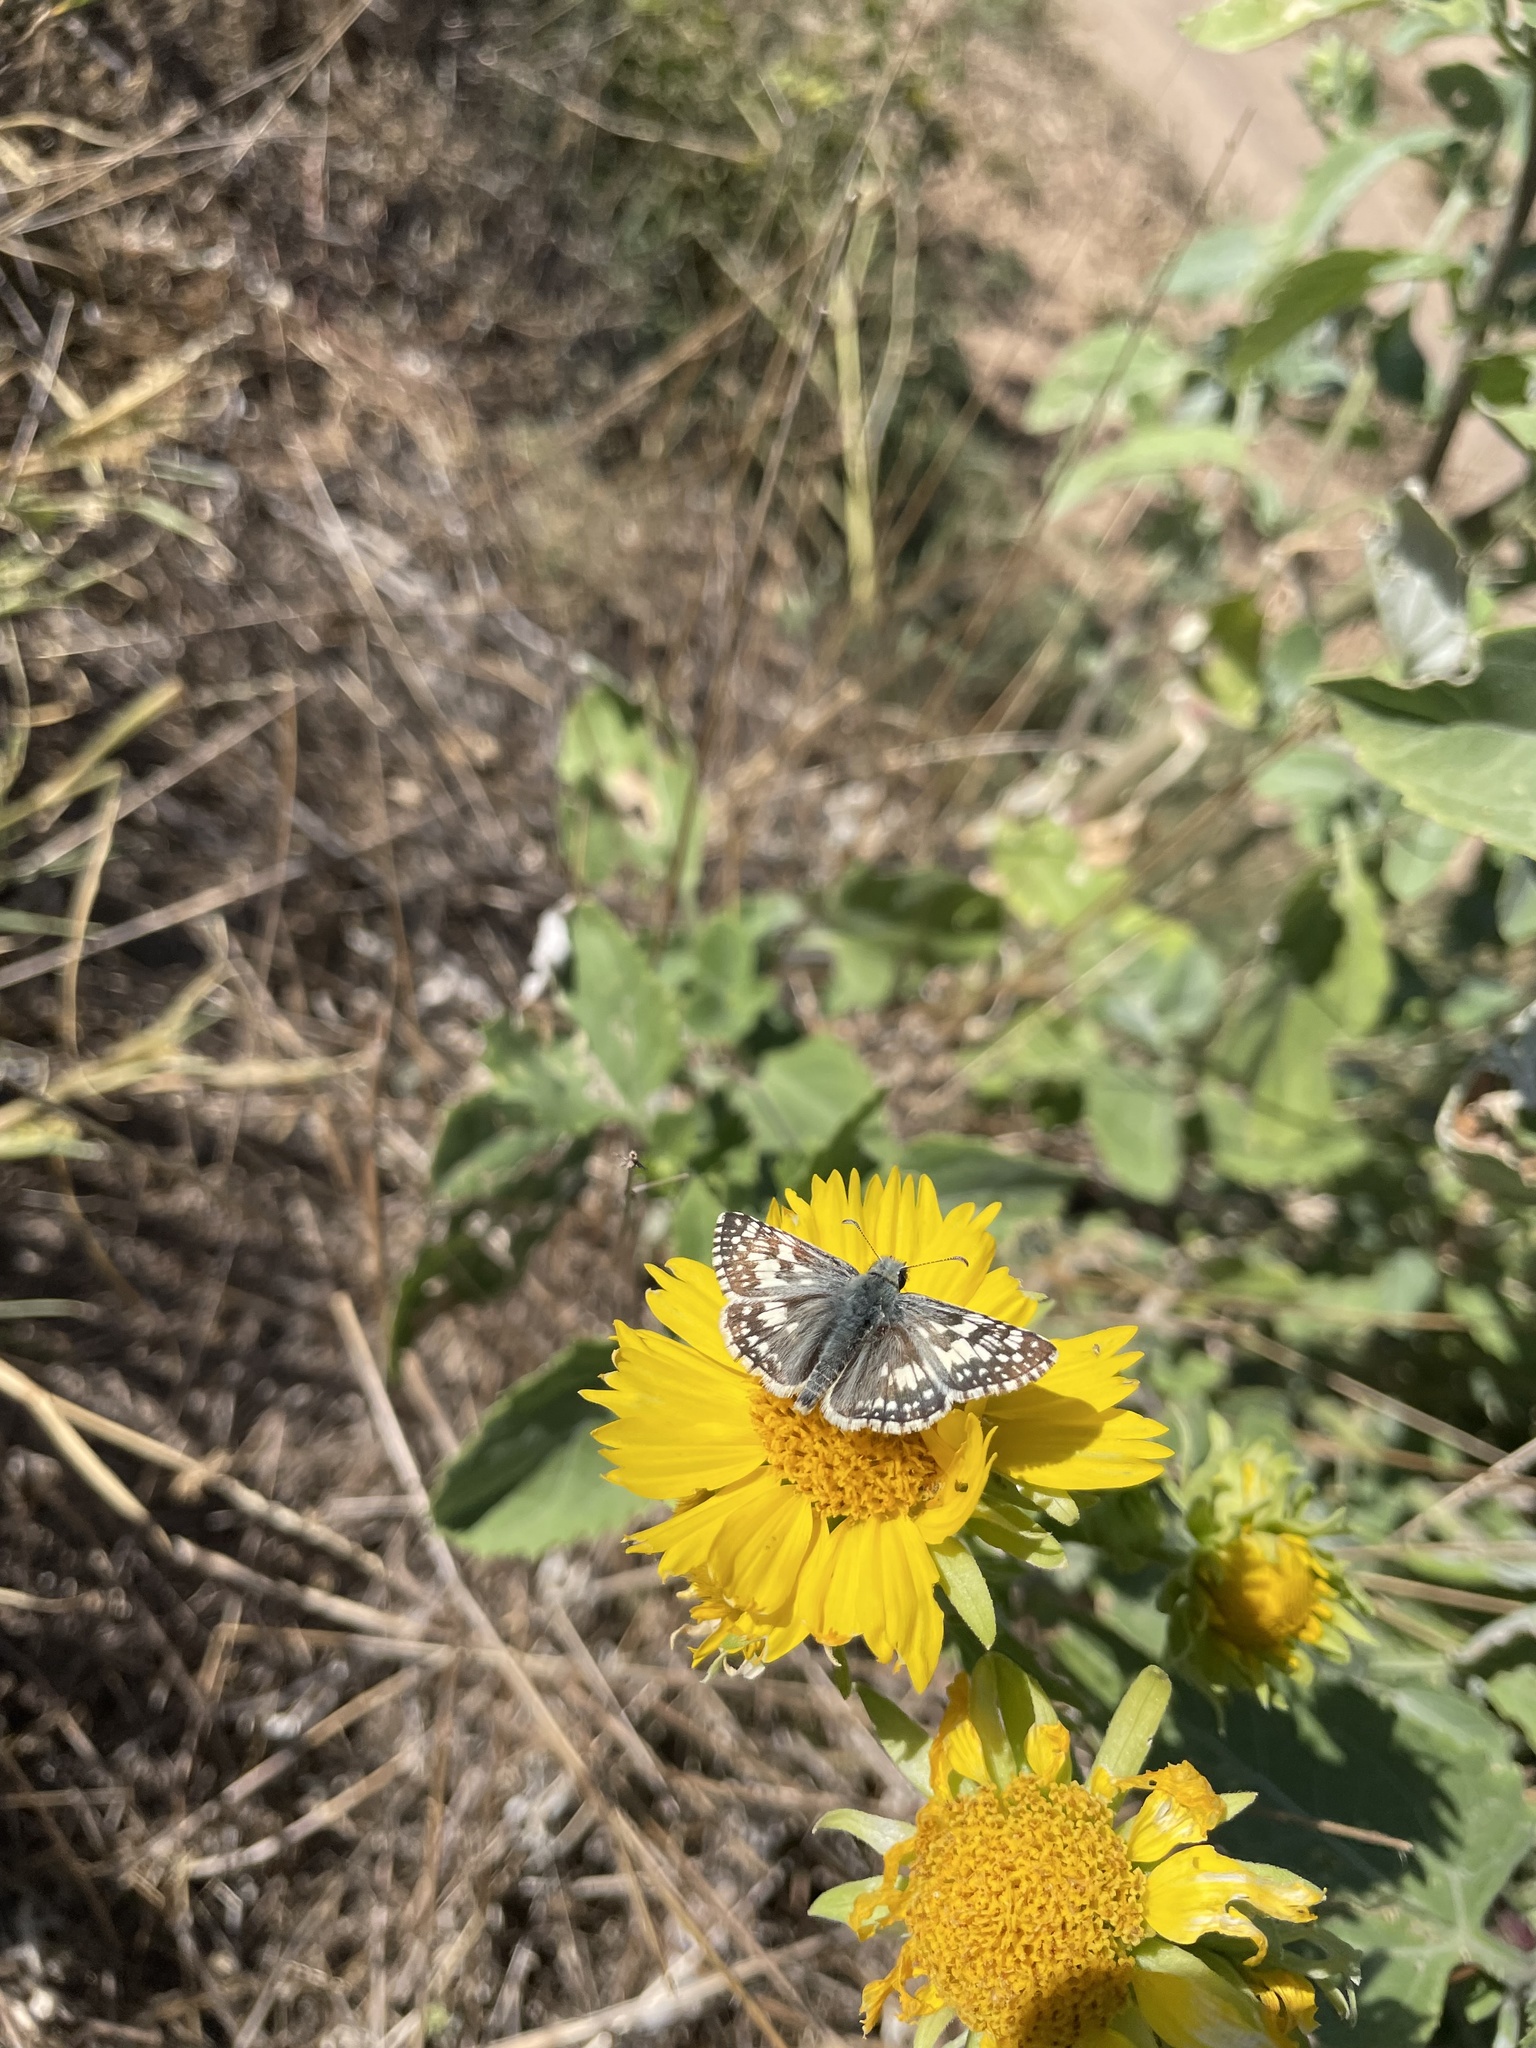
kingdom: Animalia
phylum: Arthropoda
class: Insecta
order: Lepidoptera
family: Hesperiidae
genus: Burnsius
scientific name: Burnsius communis
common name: Common checkered-skipper
